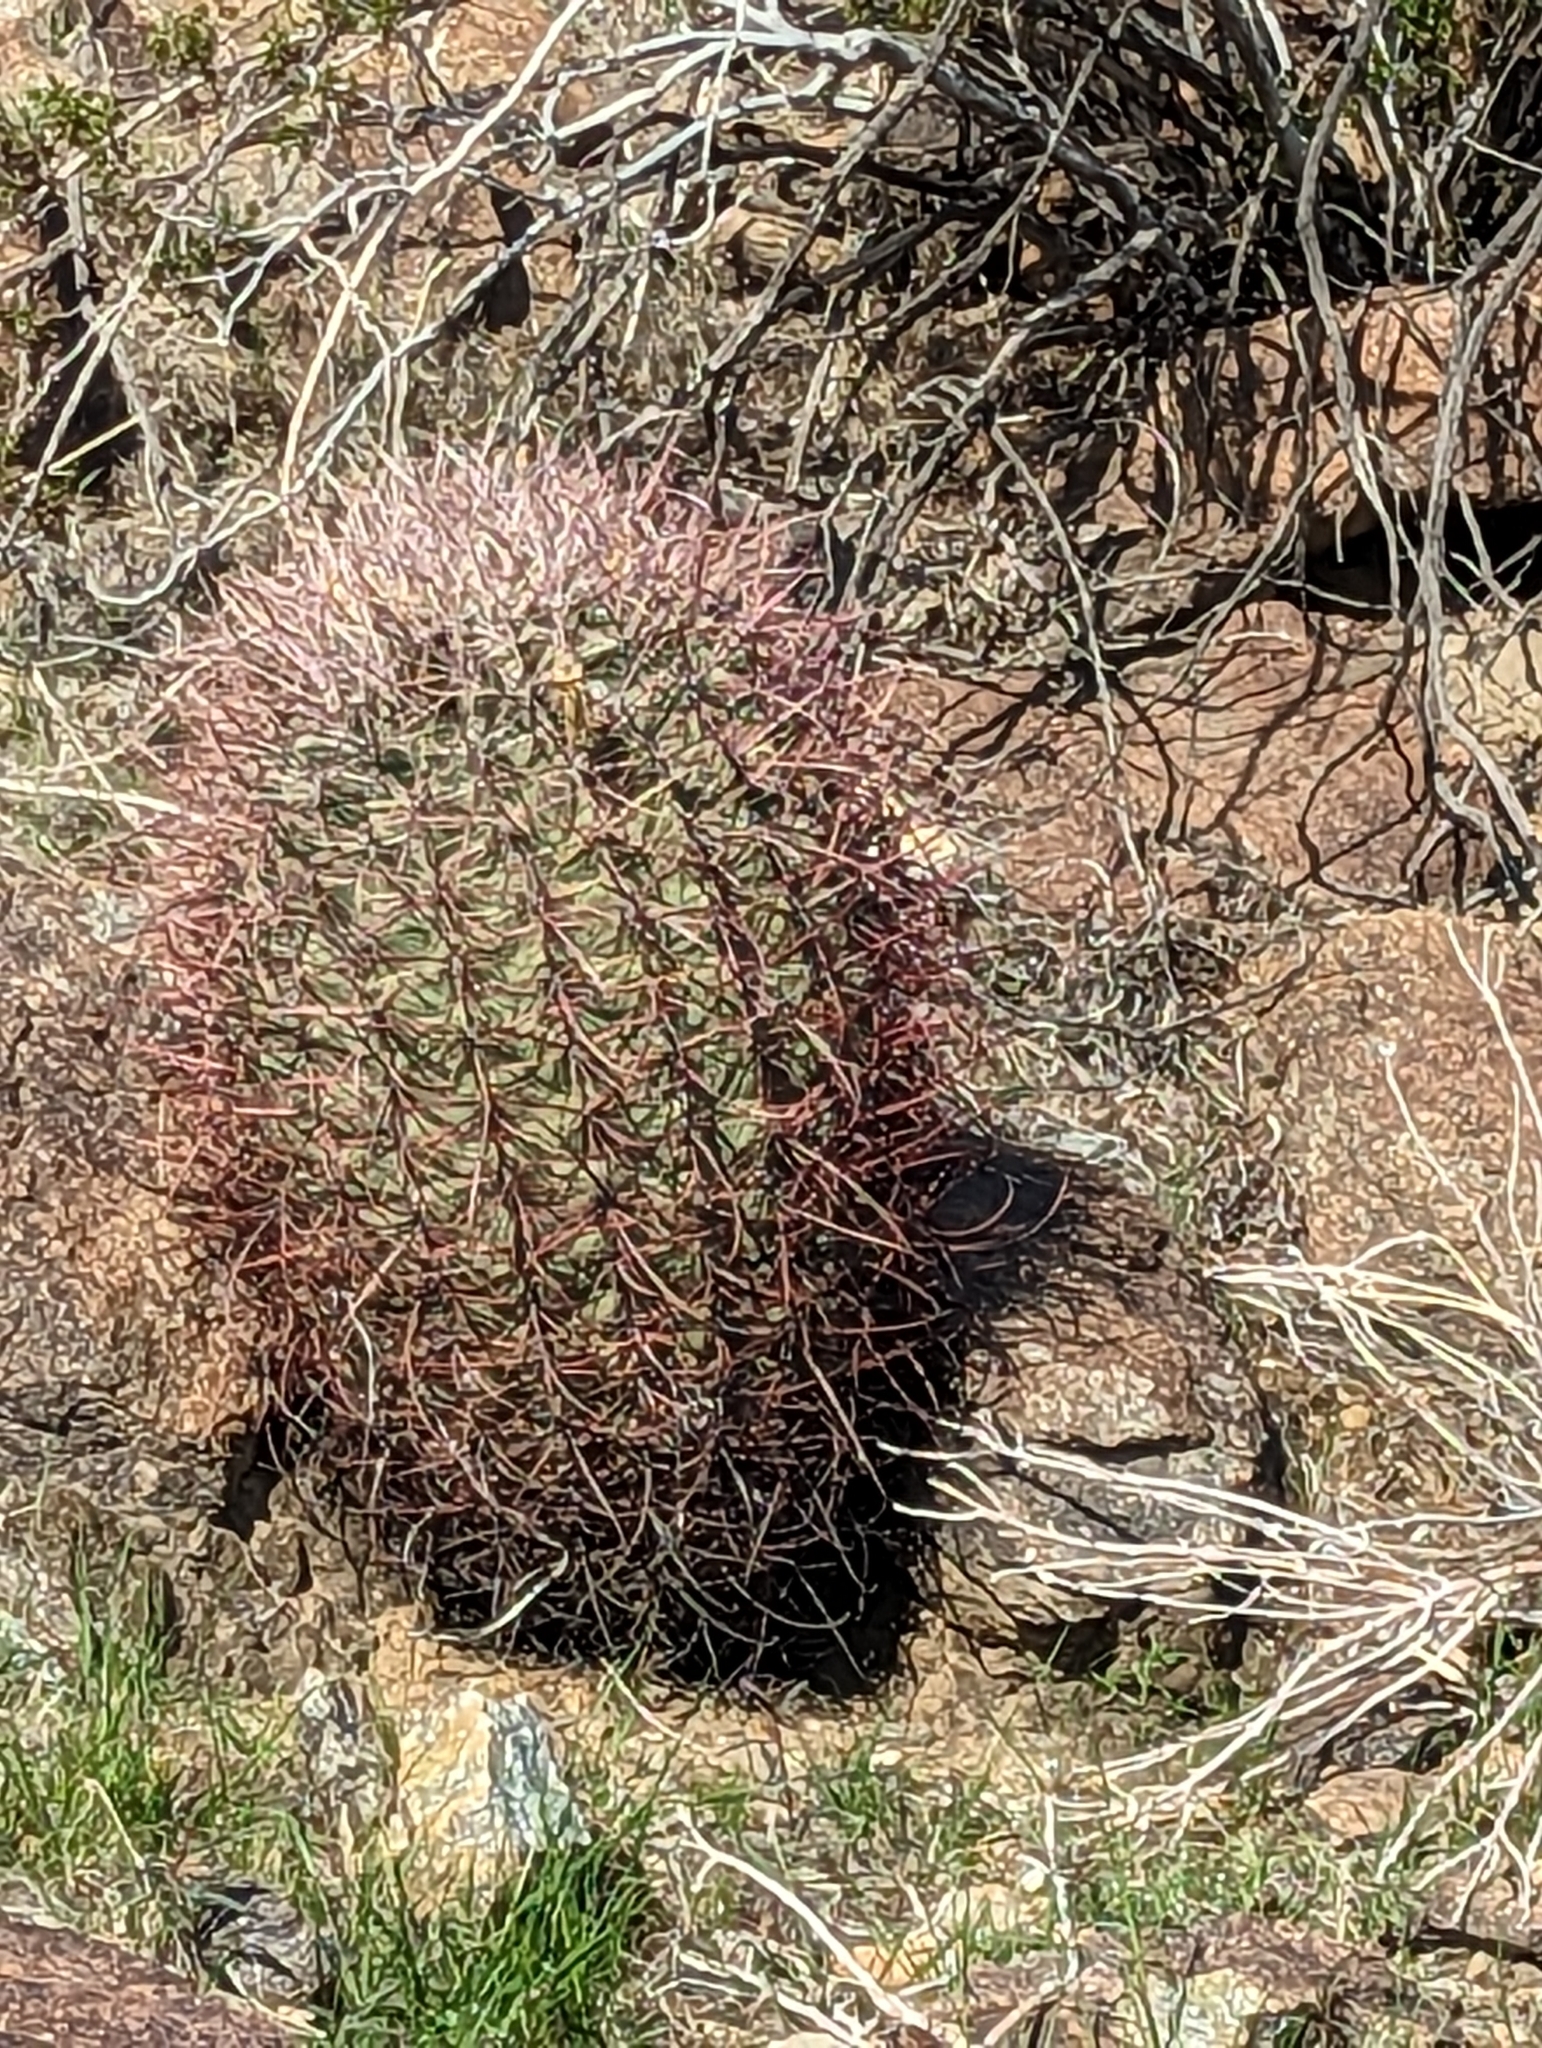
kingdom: Plantae
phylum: Tracheophyta
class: Magnoliopsida
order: Caryophyllales
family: Cactaceae
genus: Ferocactus
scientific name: Ferocactus cylindraceus
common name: California barrel cactus
